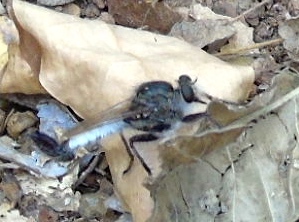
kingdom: Animalia
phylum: Arthropoda
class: Insecta
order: Diptera
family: Asilidae
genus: Efferia
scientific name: Efferia
